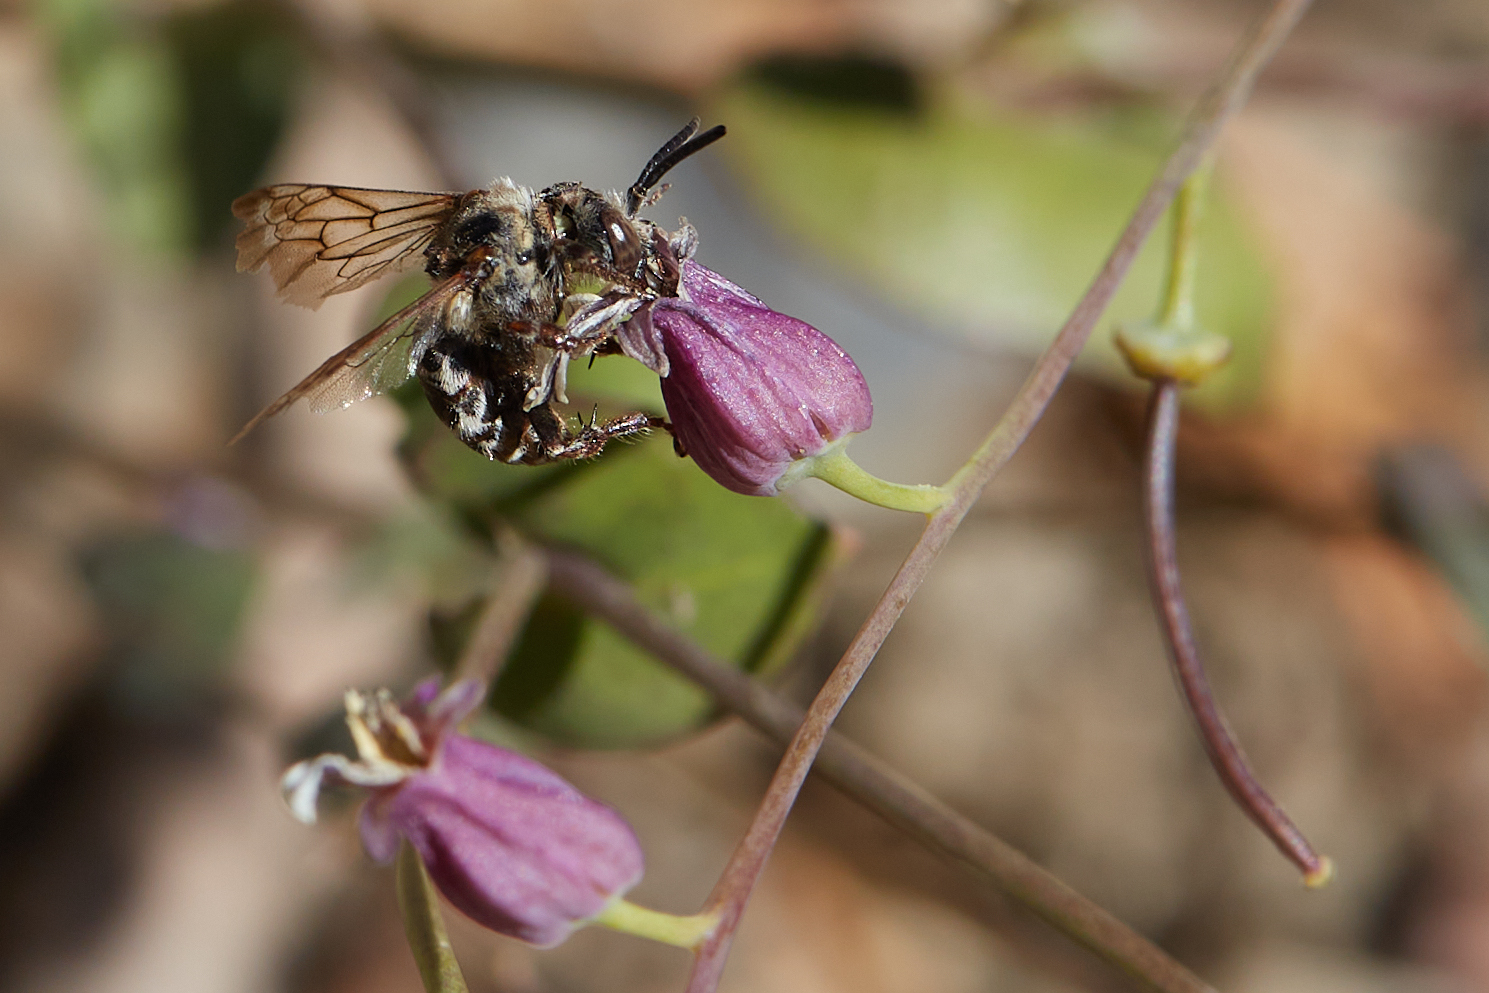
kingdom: Animalia
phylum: Arthropoda
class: Insecta
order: Hymenoptera
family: Apidae
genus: Brachymelecta
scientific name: Brachymelecta californica
